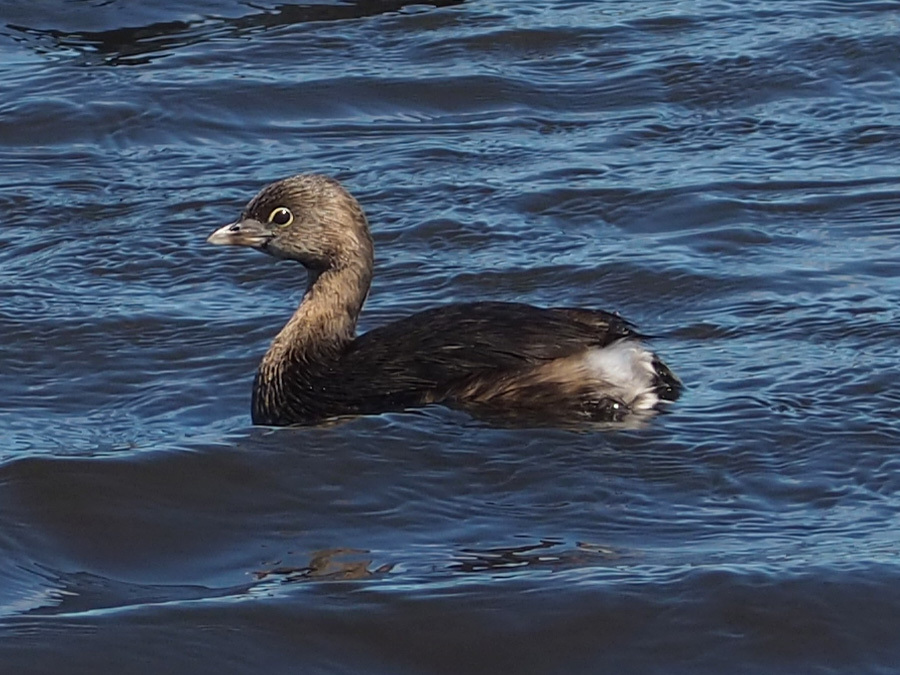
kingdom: Animalia
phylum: Chordata
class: Aves
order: Podicipediformes
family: Podicipedidae
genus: Podilymbus
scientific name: Podilymbus podiceps
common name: Pied-billed grebe
